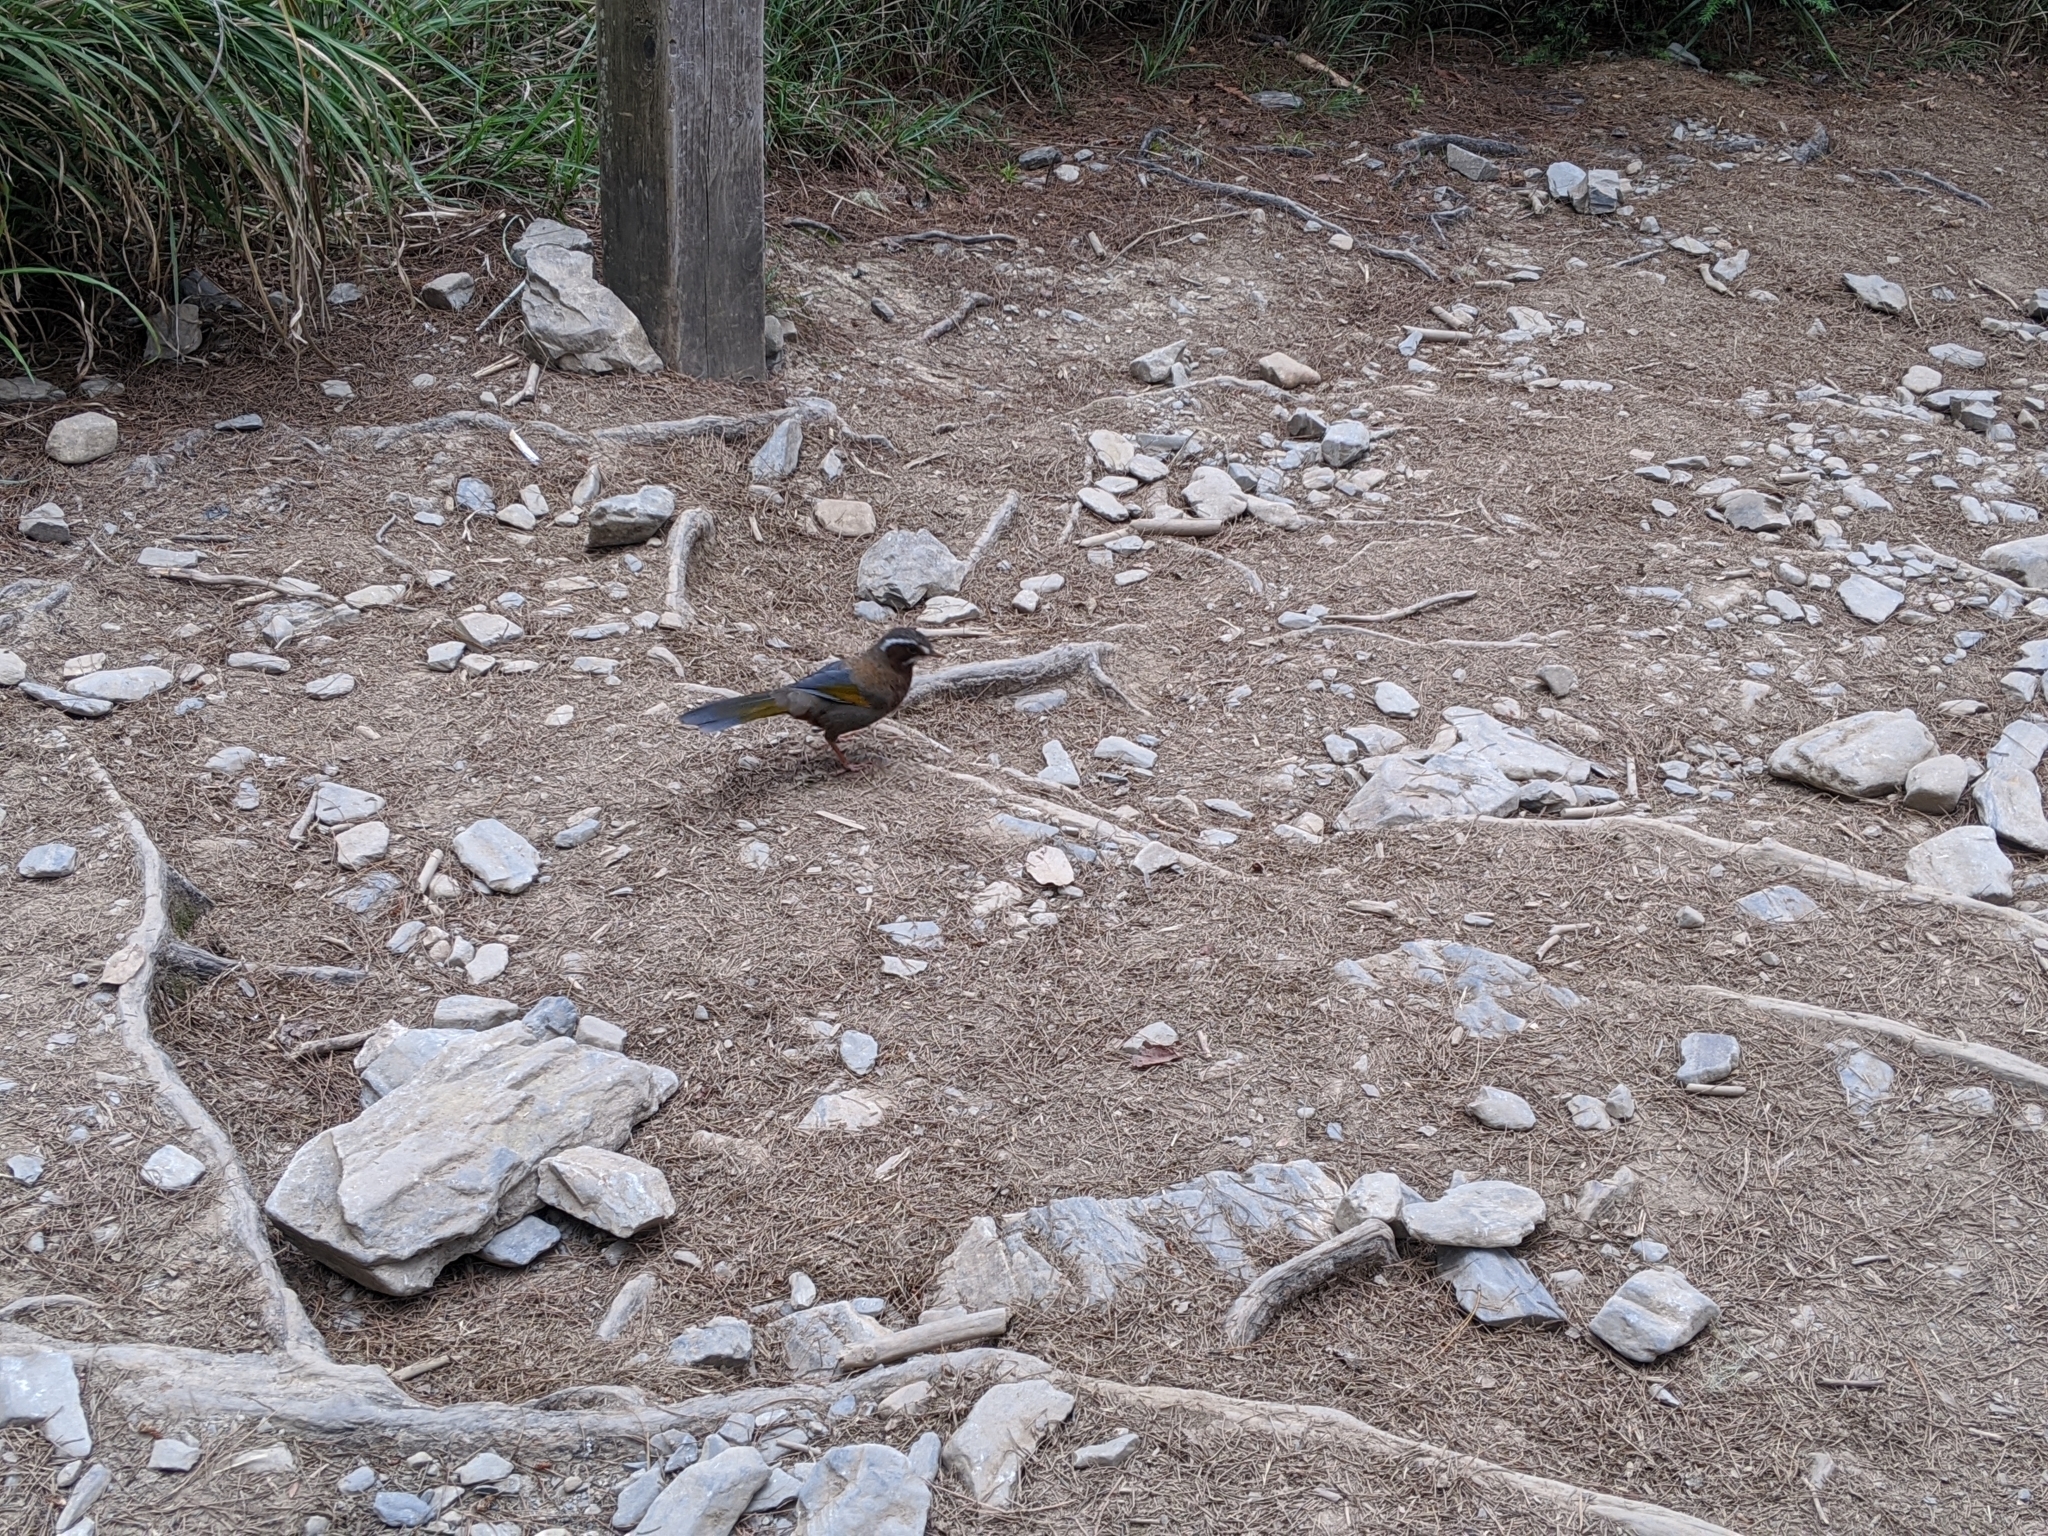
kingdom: Animalia
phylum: Chordata
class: Aves
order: Passeriformes
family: Leiothrichidae
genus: Trochalopteron
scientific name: Trochalopteron morrisonianum
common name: White-whiskered laughingthrush
